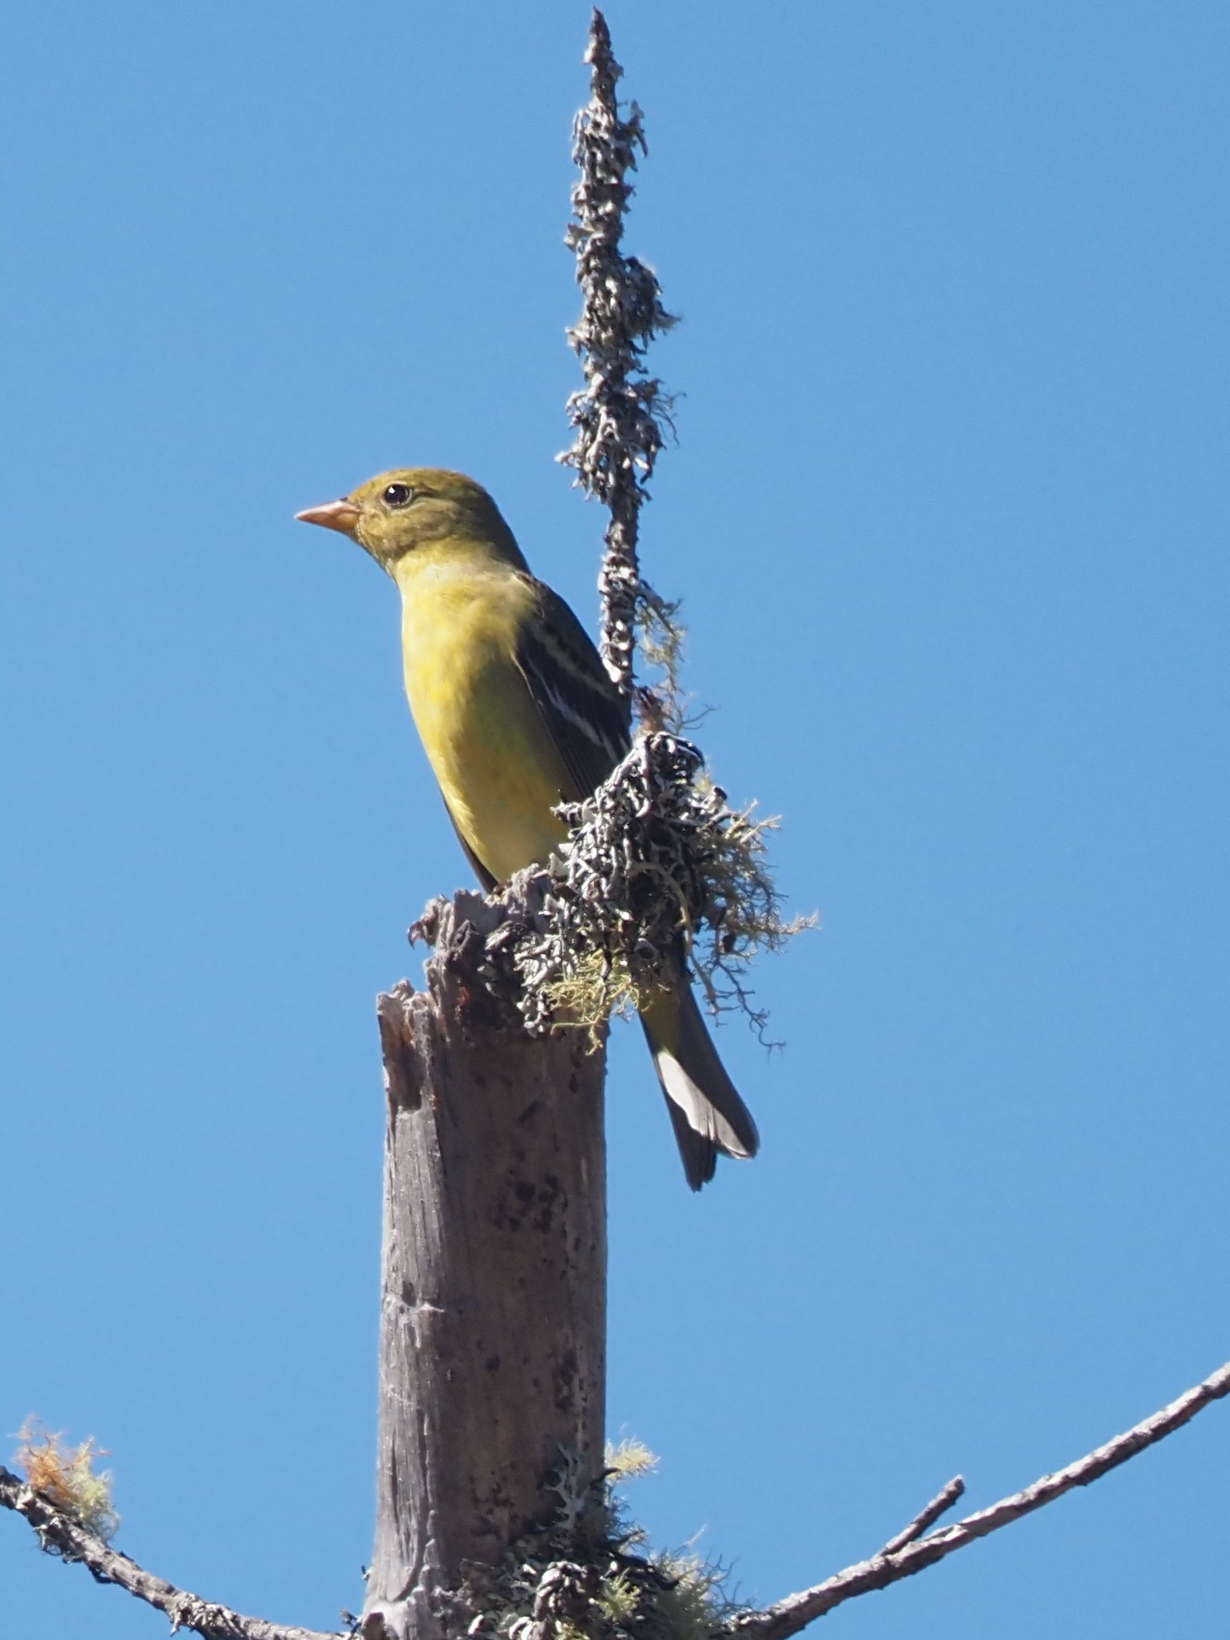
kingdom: Animalia
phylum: Chordata
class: Aves
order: Passeriformes
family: Cardinalidae
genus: Piranga
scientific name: Piranga ludoviciana
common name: Western tanager
